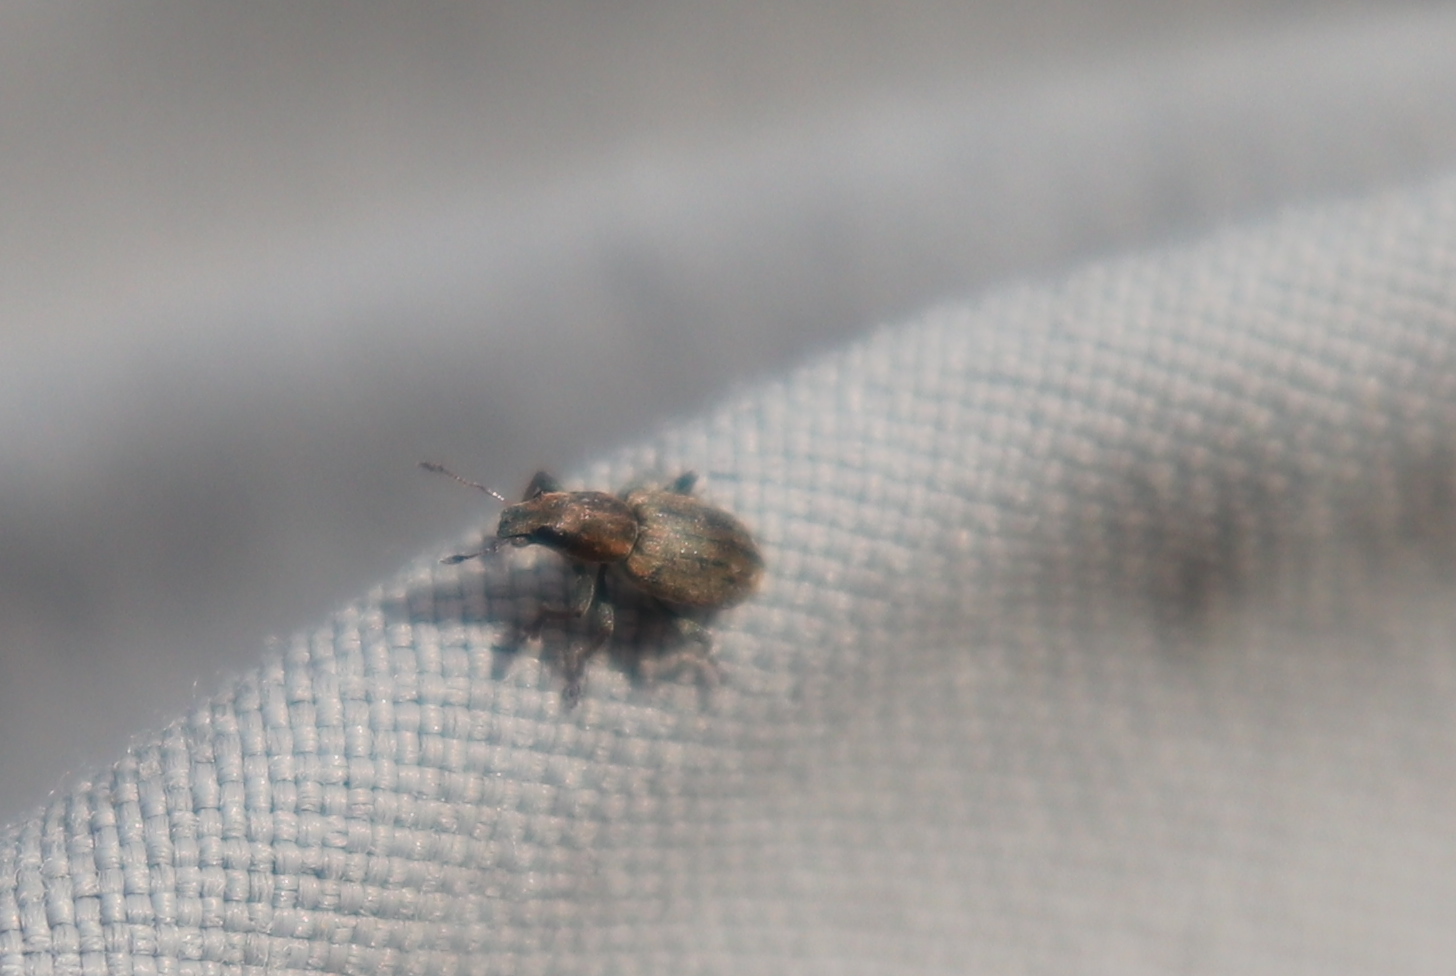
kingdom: Animalia
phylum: Arthropoda
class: Insecta
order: Coleoptera
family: Curculionidae
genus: Sitona
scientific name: Sitona obsoletus
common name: Weevil
